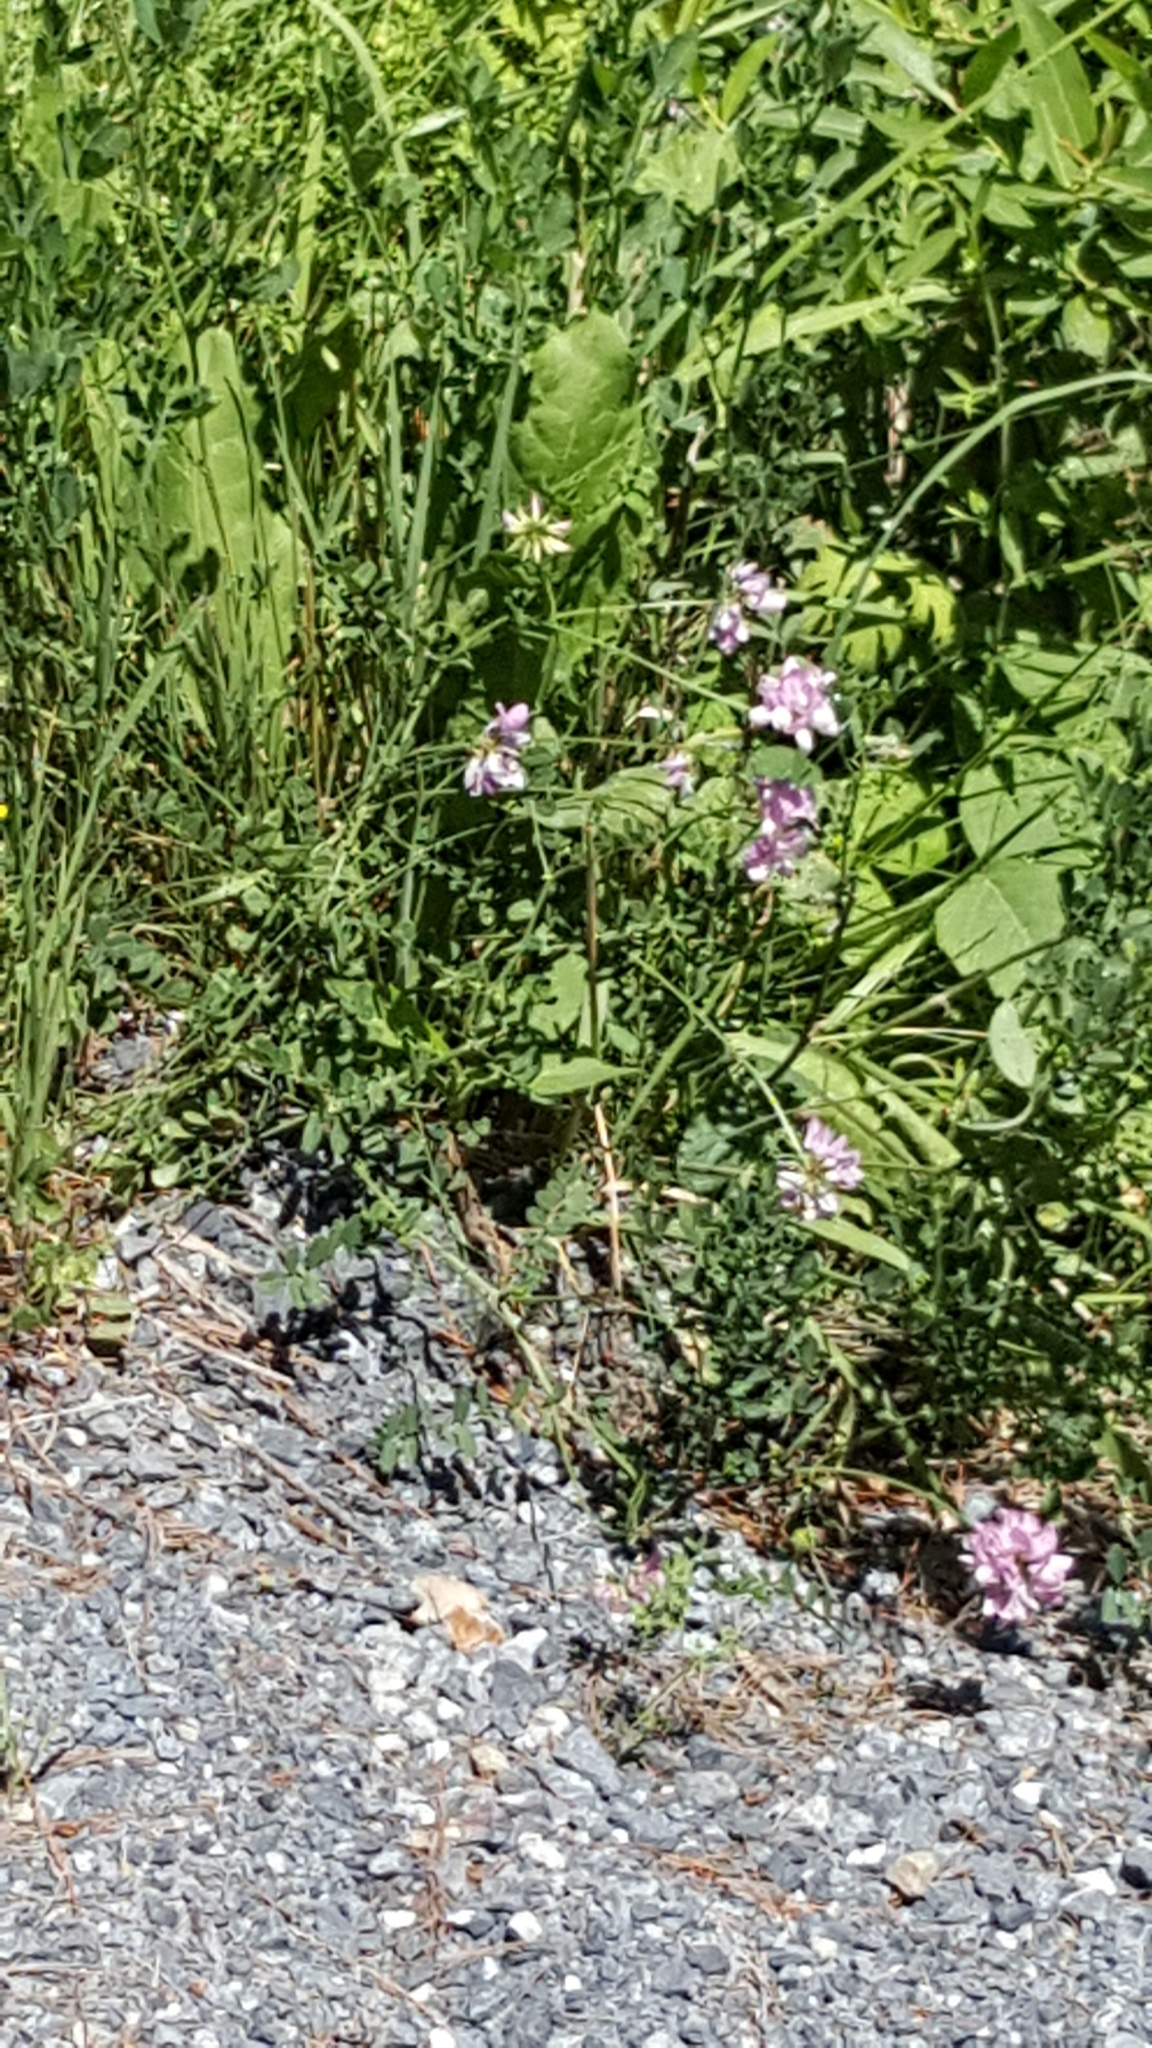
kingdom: Plantae
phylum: Tracheophyta
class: Magnoliopsida
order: Fabales
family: Fabaceae
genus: Coronilla
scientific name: Coronilla varia
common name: Crownvetch
